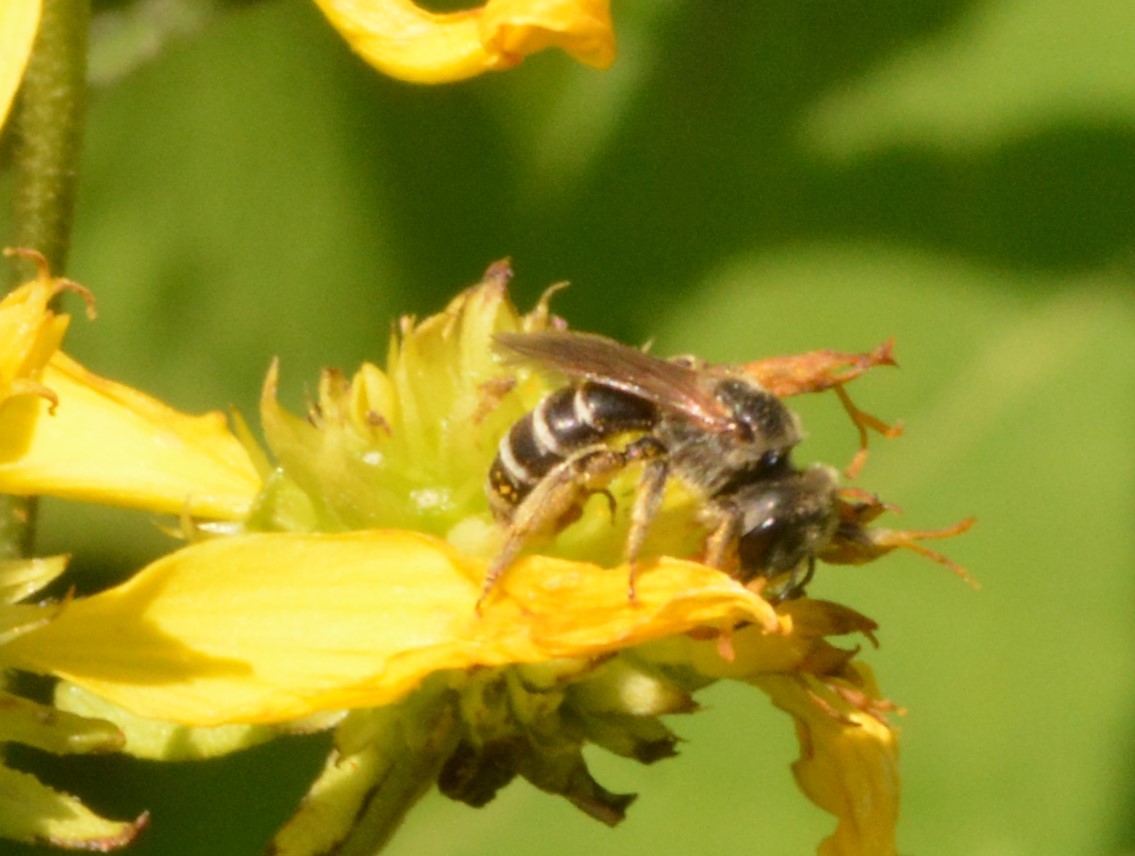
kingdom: Animalia
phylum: Arthropoda
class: Insecta
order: Hymenoptera
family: Halictidae
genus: Halictus
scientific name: Halictus ligatus
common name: Ligated furrow bee
